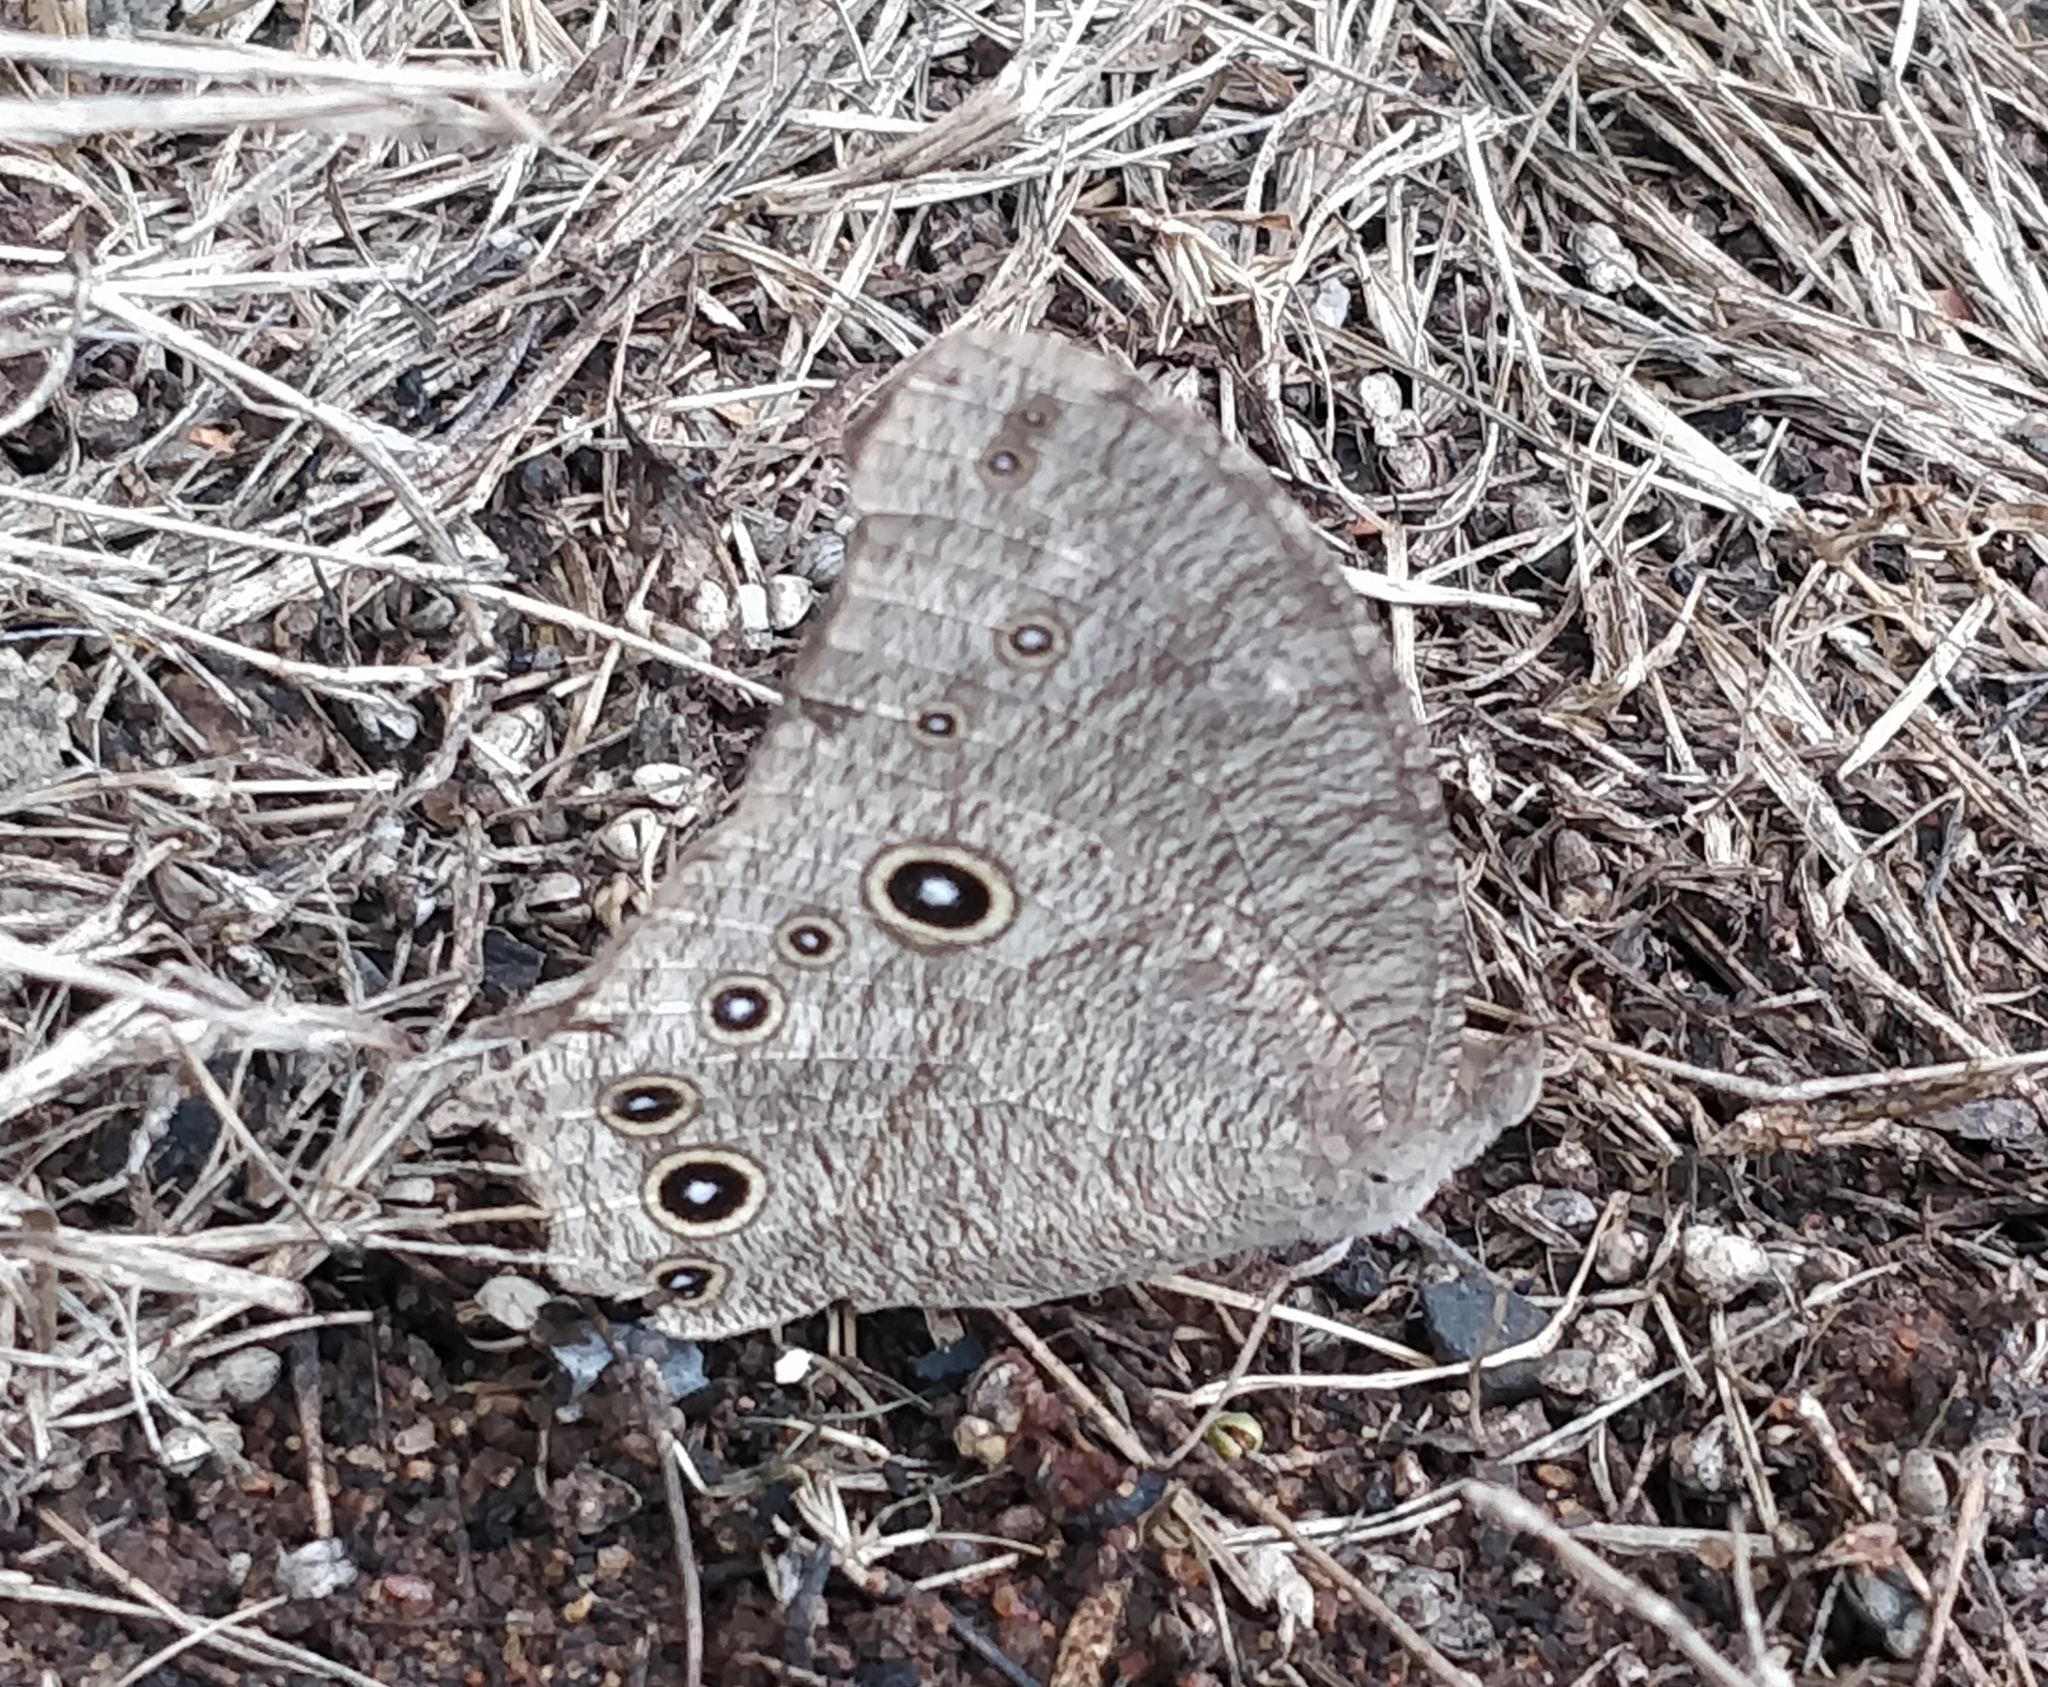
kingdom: Animalia
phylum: Arthropoda
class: Insecta
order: Lepidoptera
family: Nymphalidae
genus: Melanitis
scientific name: Melanitis leda
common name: Twilight brown
